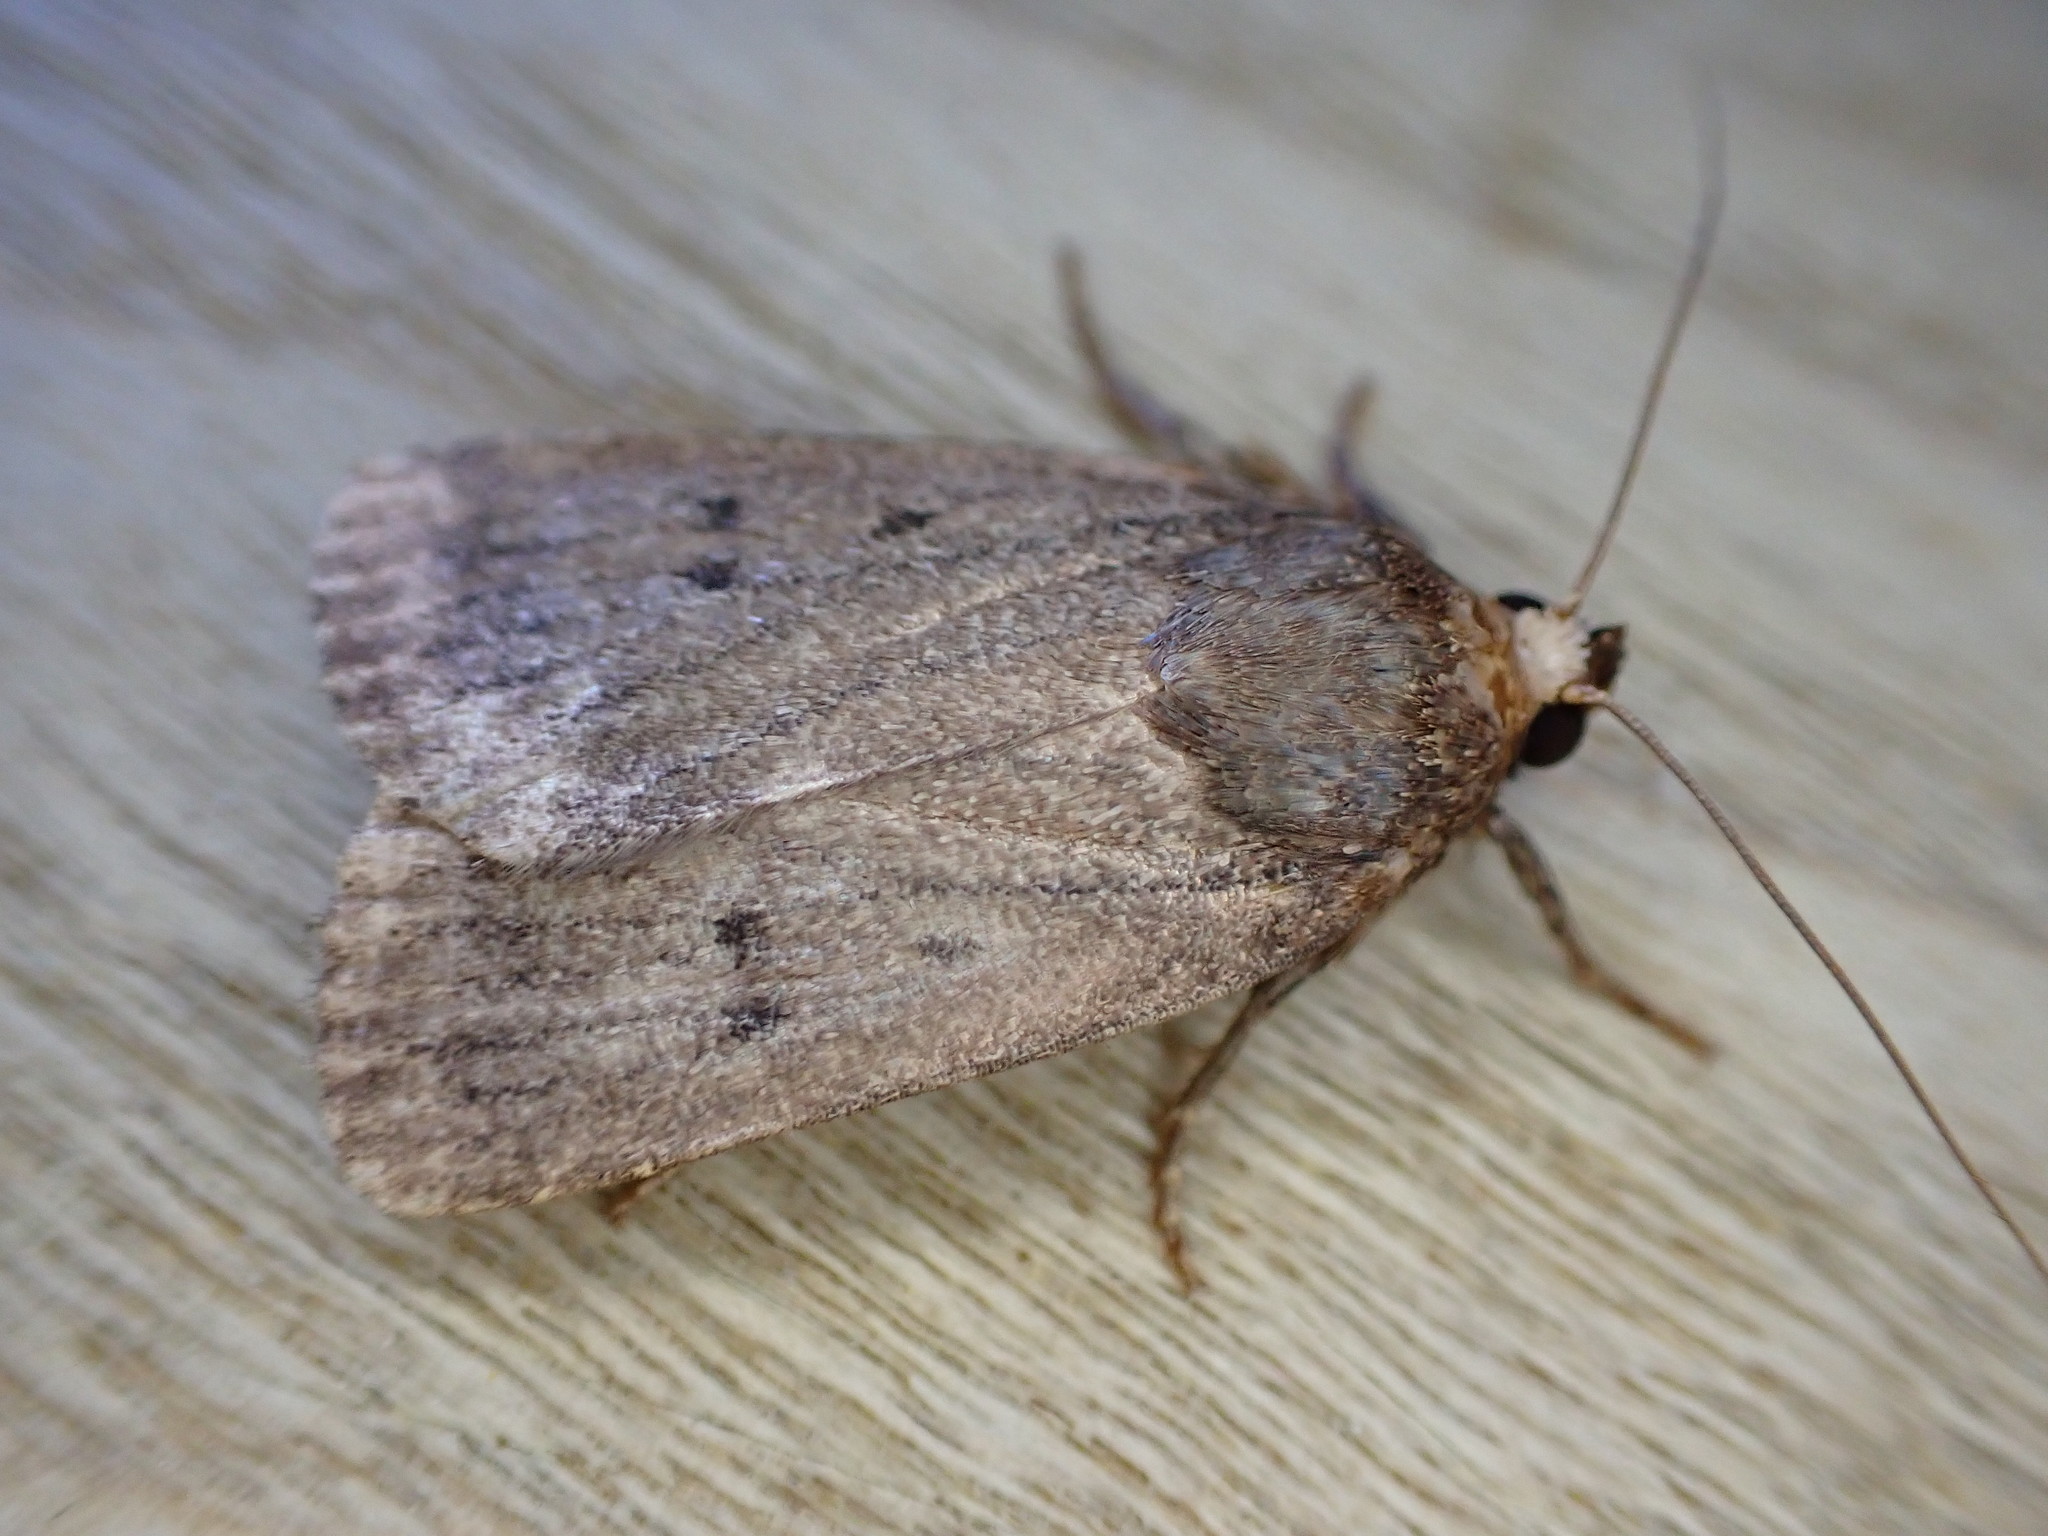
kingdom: Animalia
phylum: Arthropoda
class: Insecta
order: Lepidoptera
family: Noctuidae
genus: Amphipyra
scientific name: Amphipyra tragopoginis
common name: Mouse moth
